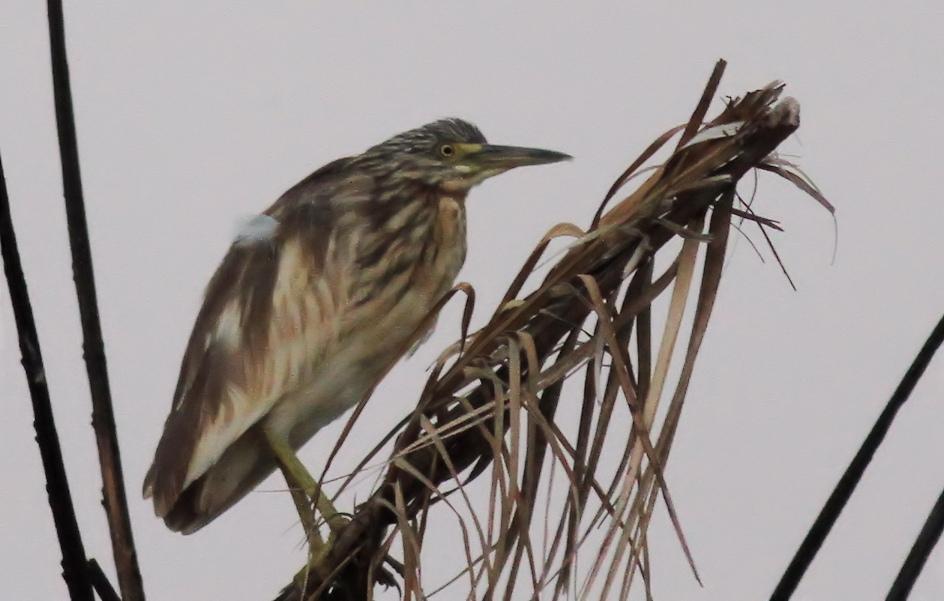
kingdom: Animalia
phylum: Chordata
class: Aves
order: Pelecaniformes
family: Ardeidae
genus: Ardeola
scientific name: Ardeola ralloides
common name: Squacco heron
